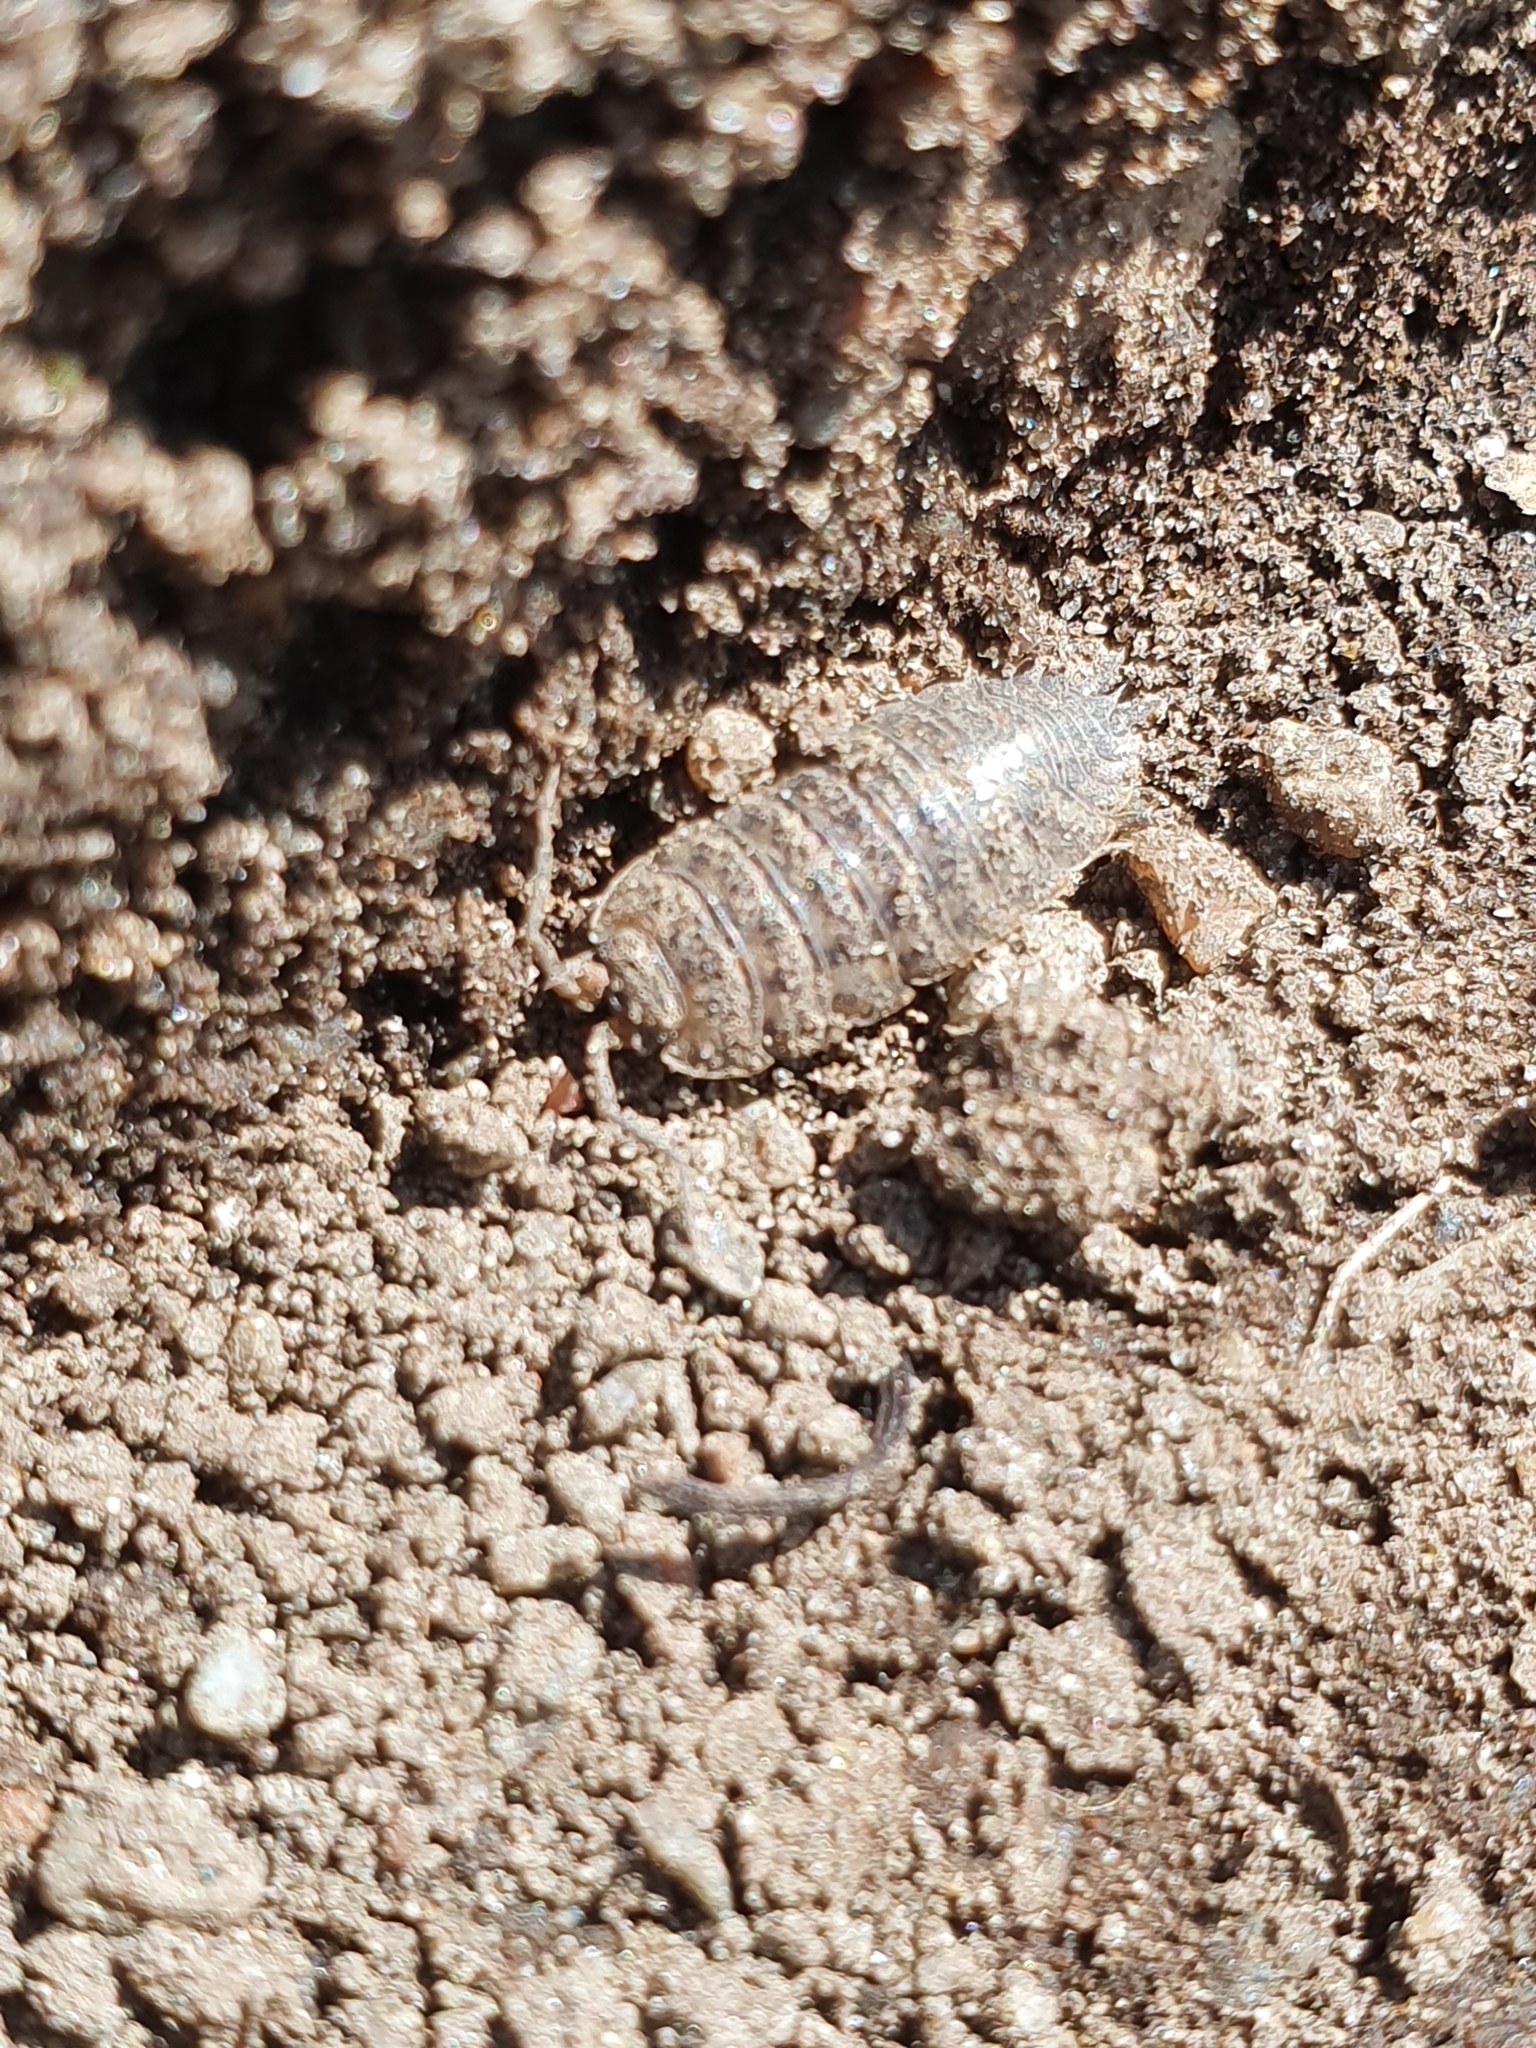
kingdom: Animalia
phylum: Arthropoda
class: Malacostraca
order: Isopoda
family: Trachelipodidae
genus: Trachelipus
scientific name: Trachelipus rathkii
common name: Isopod
